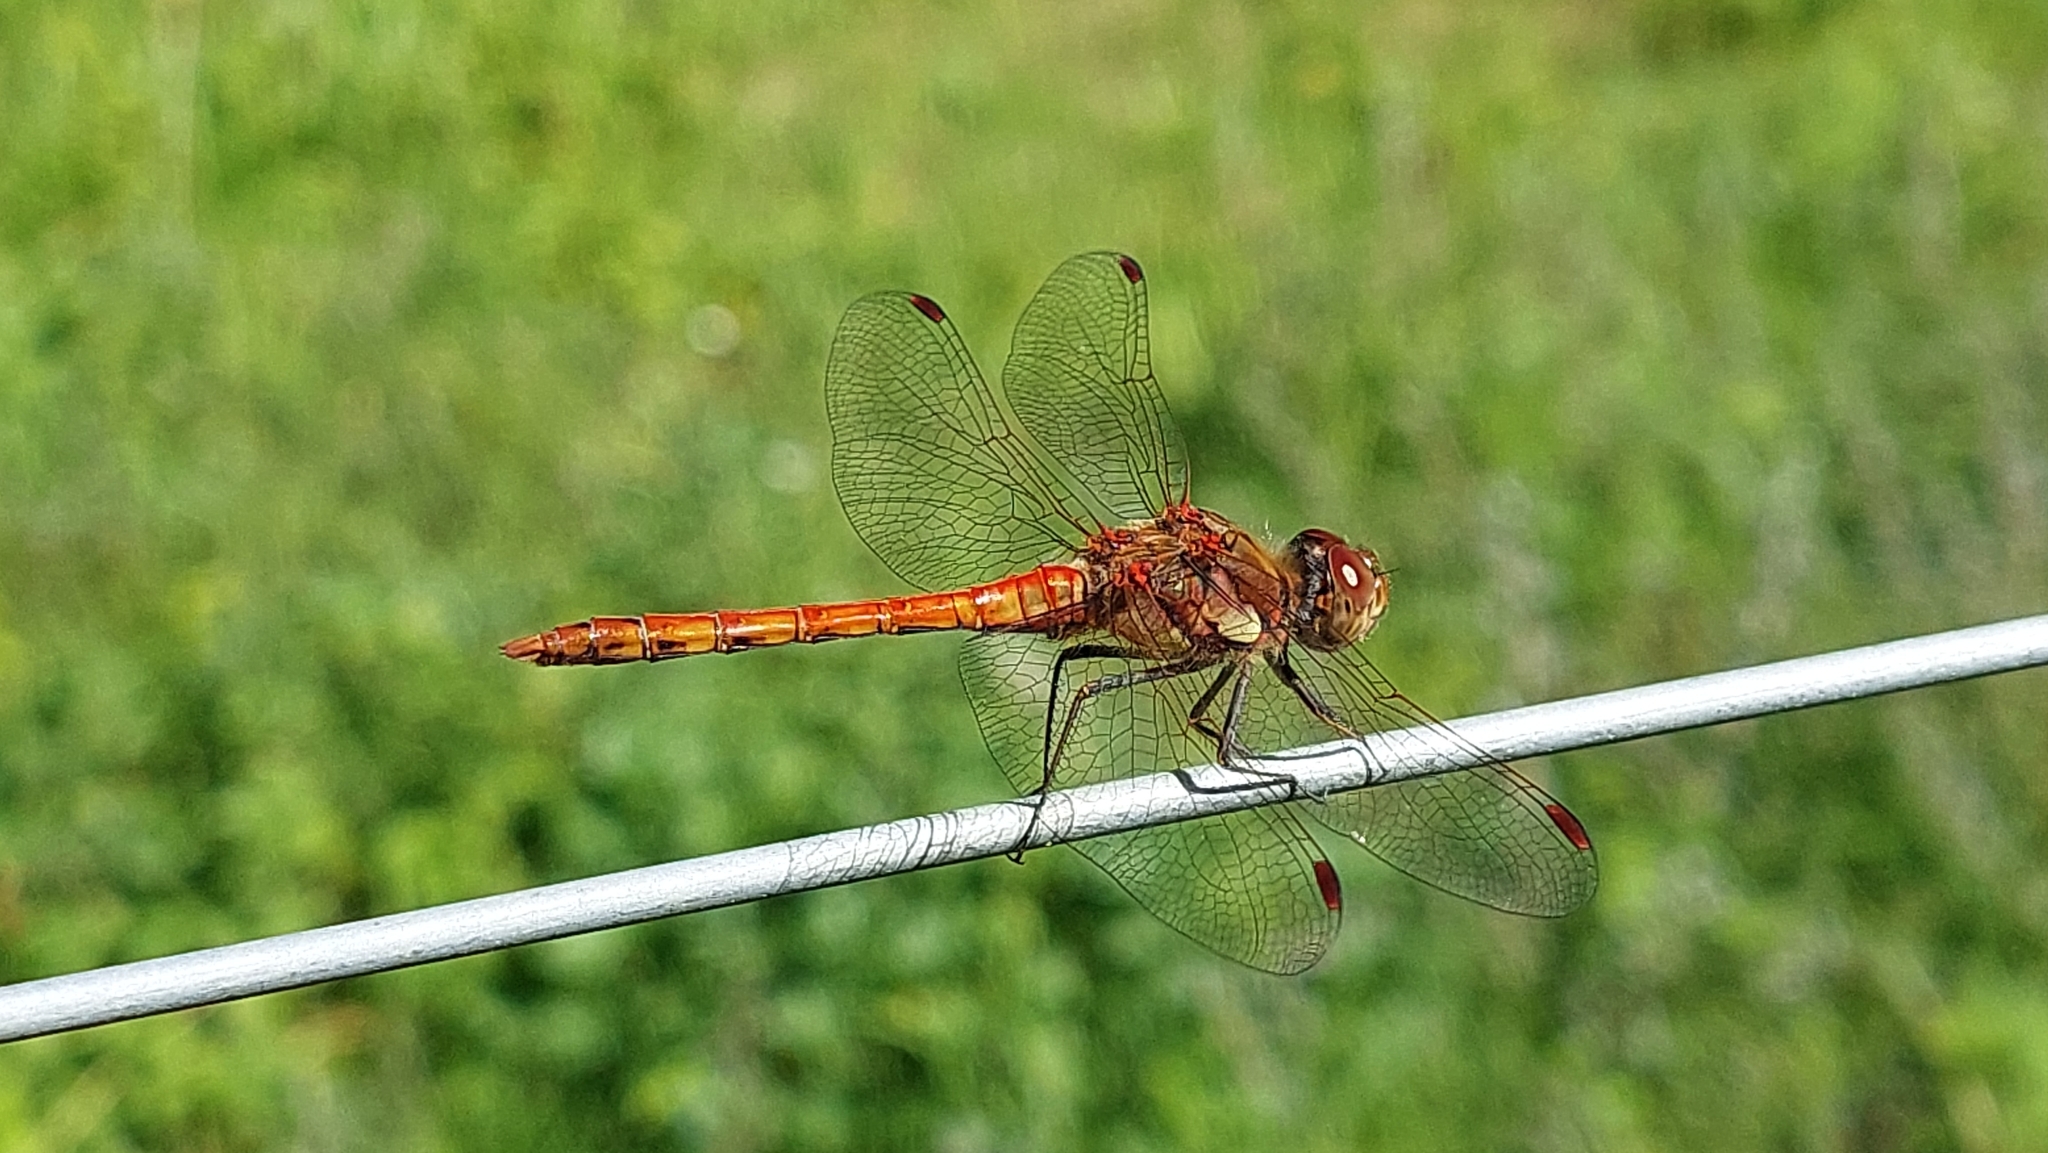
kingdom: Animalia
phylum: Arthropoda
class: Insecta
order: Odonata
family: Libellulidae
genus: Sympetrum
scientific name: Sympetrum striolatum
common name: Common darter
